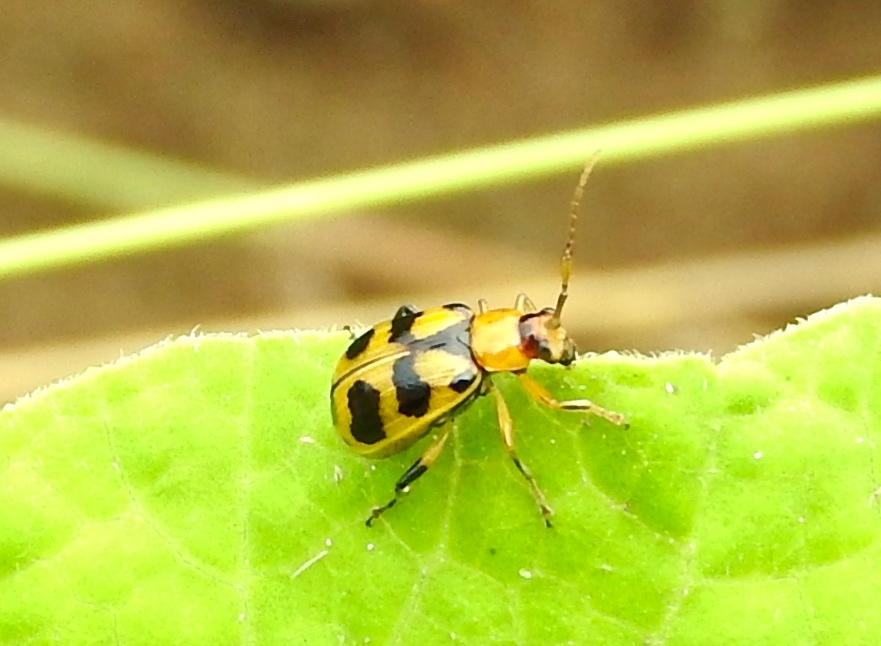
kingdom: Animalia
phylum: Arthropoda
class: Insecta
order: Coleoptera
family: Chrysomelidae
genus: Cerotoma
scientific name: Cerotoma atrofasciata
